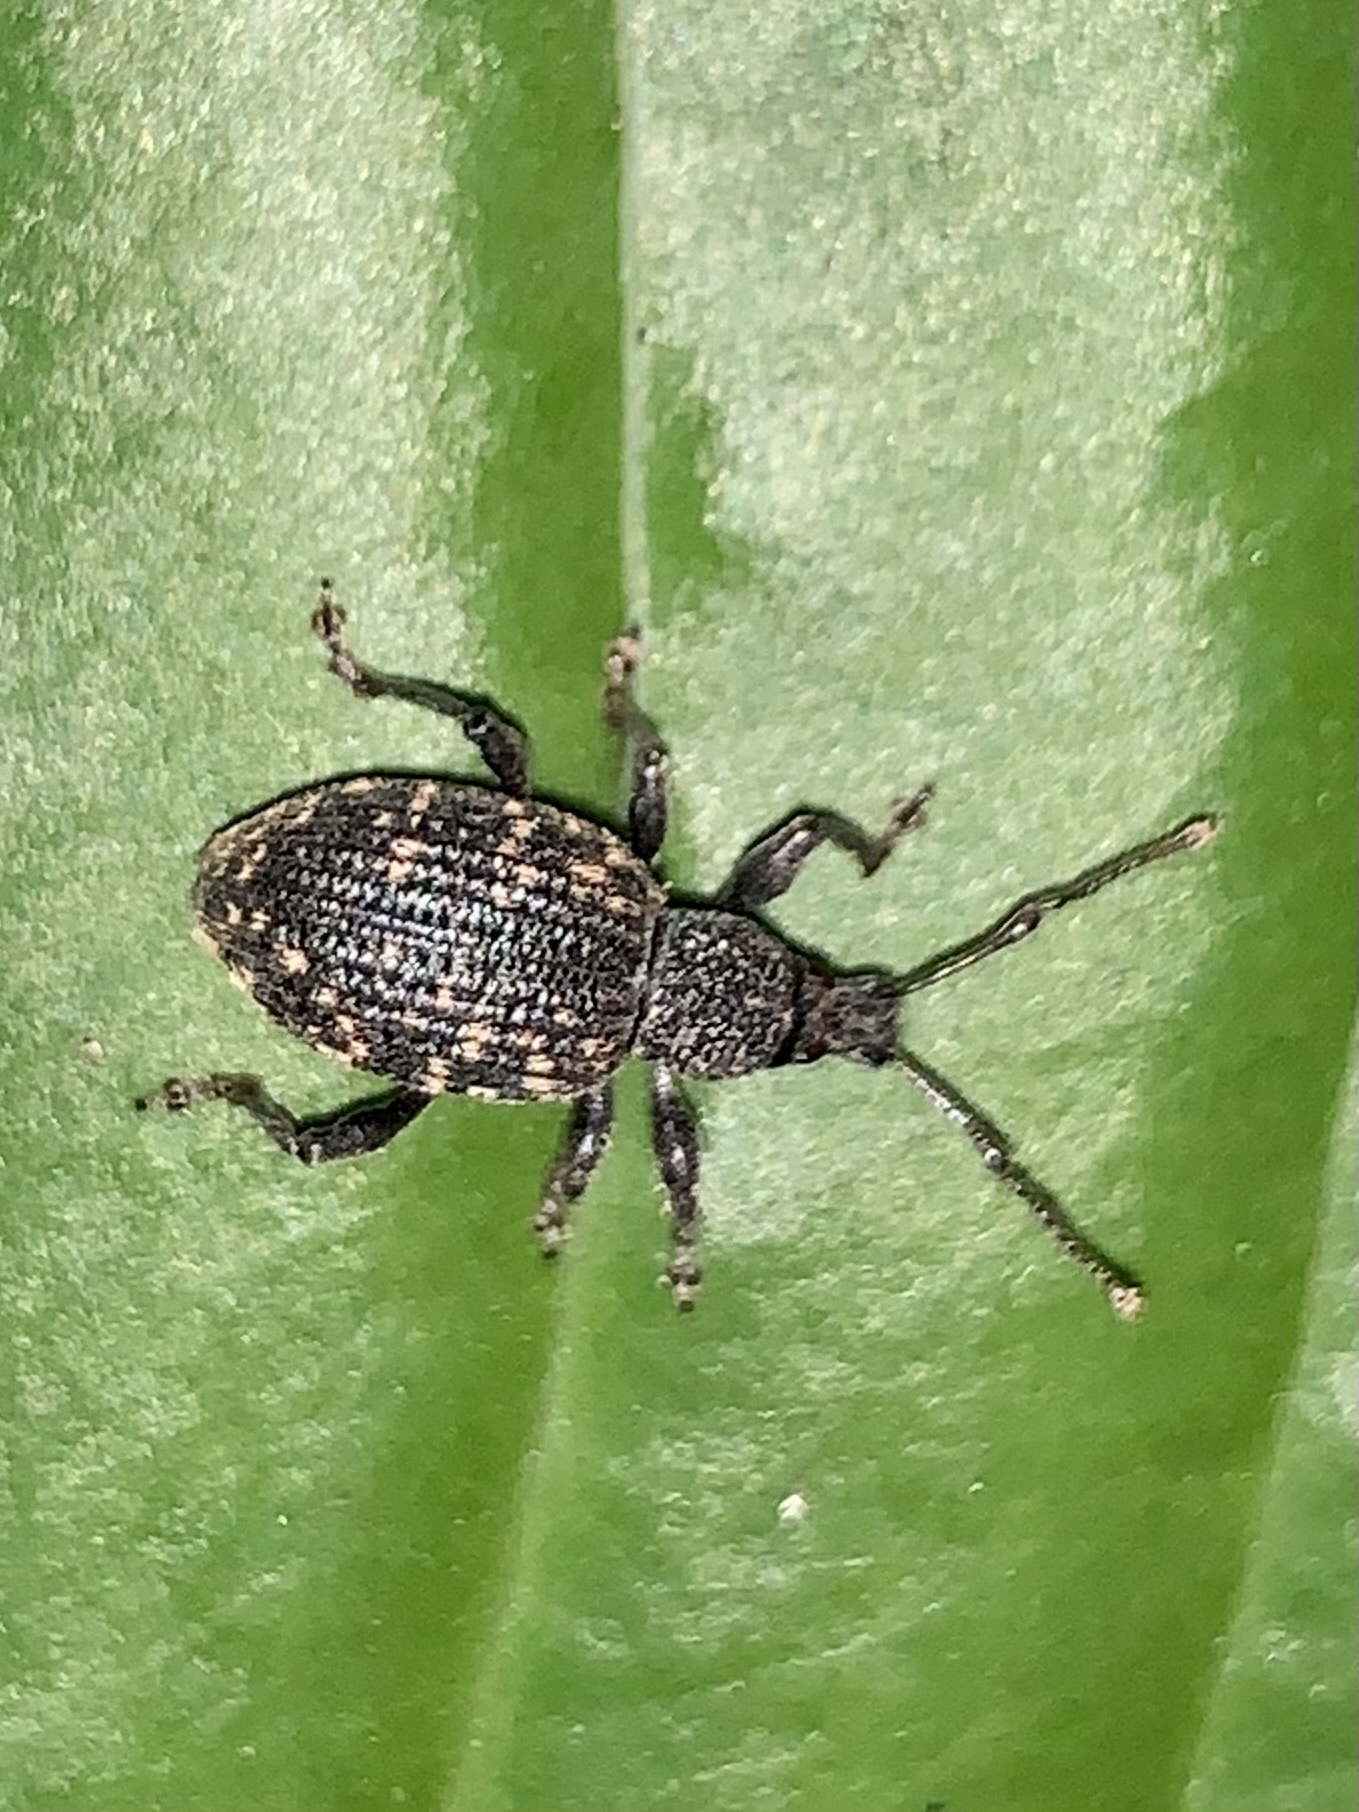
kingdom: Animalia
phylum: Arthropoda
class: Insecta
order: Coleoptera
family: Curculionidae
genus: Otiorhynchus
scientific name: Otiorhynchus sulcatus
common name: Black vine weevil
